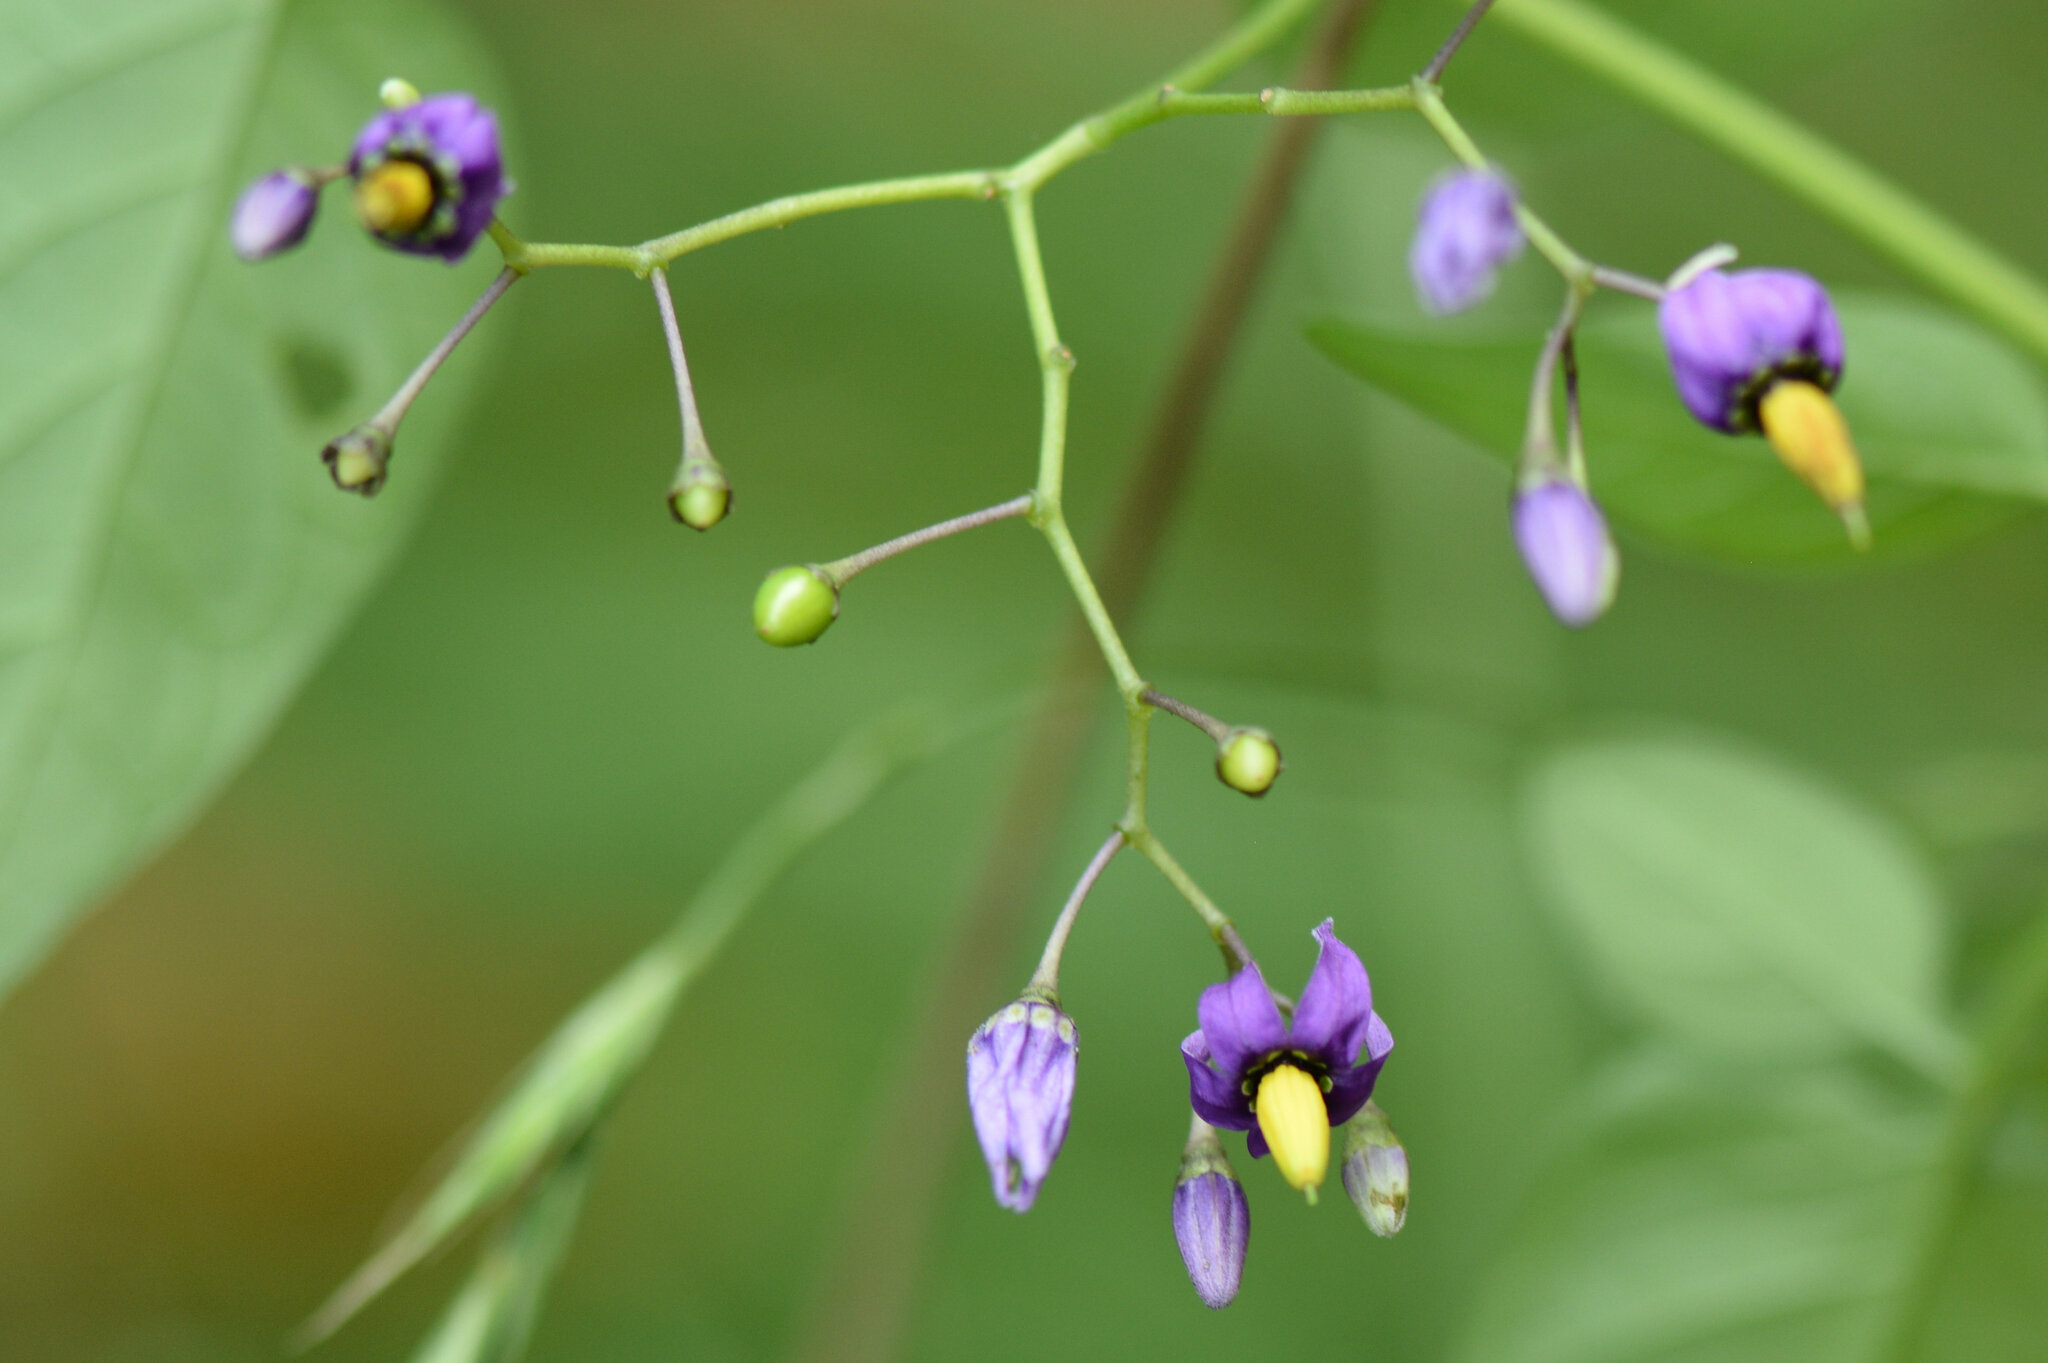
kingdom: Plantae
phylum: Tracheophyta
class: Magnoliopsida
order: Solanales
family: Solanaceae
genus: Solanum
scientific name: Solanum dulcamara
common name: Climbing nightshade
